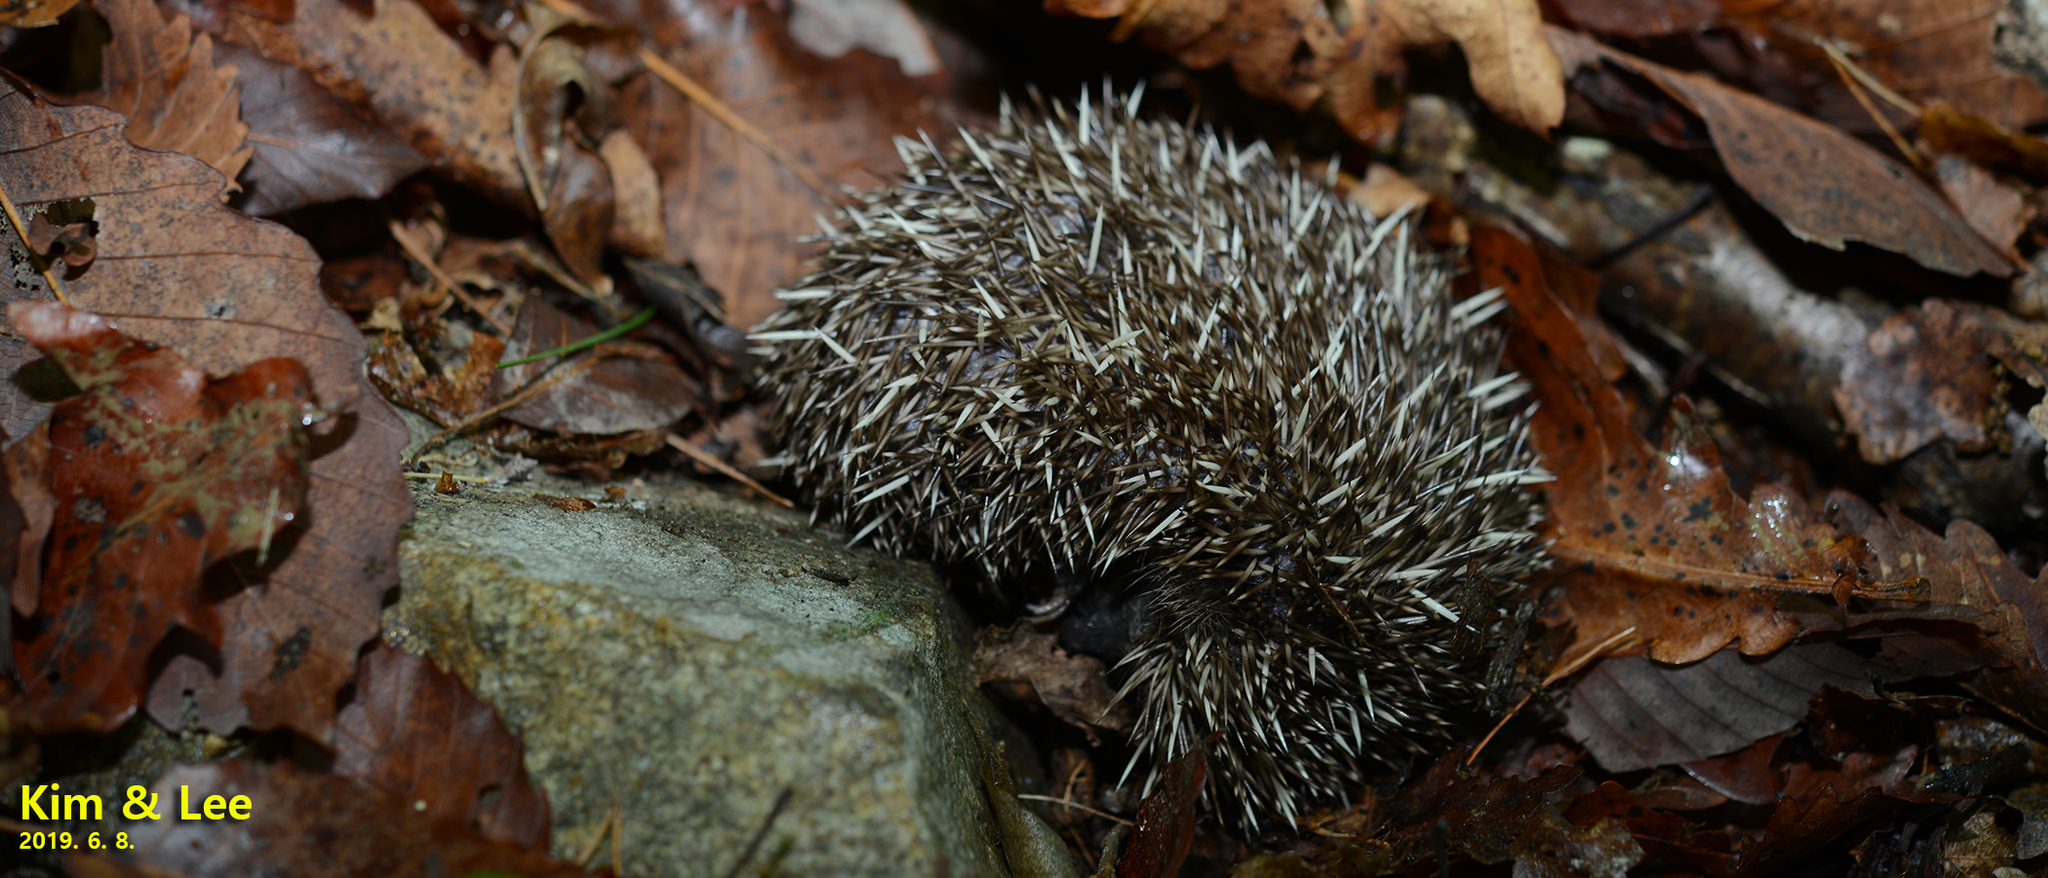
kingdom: Animalia
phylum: Chordata
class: Mammalia
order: Erinaceomorpha
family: Erinaceidae
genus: Erinaceus
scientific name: Erinaceus amurensis
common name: Amur hedgehog
